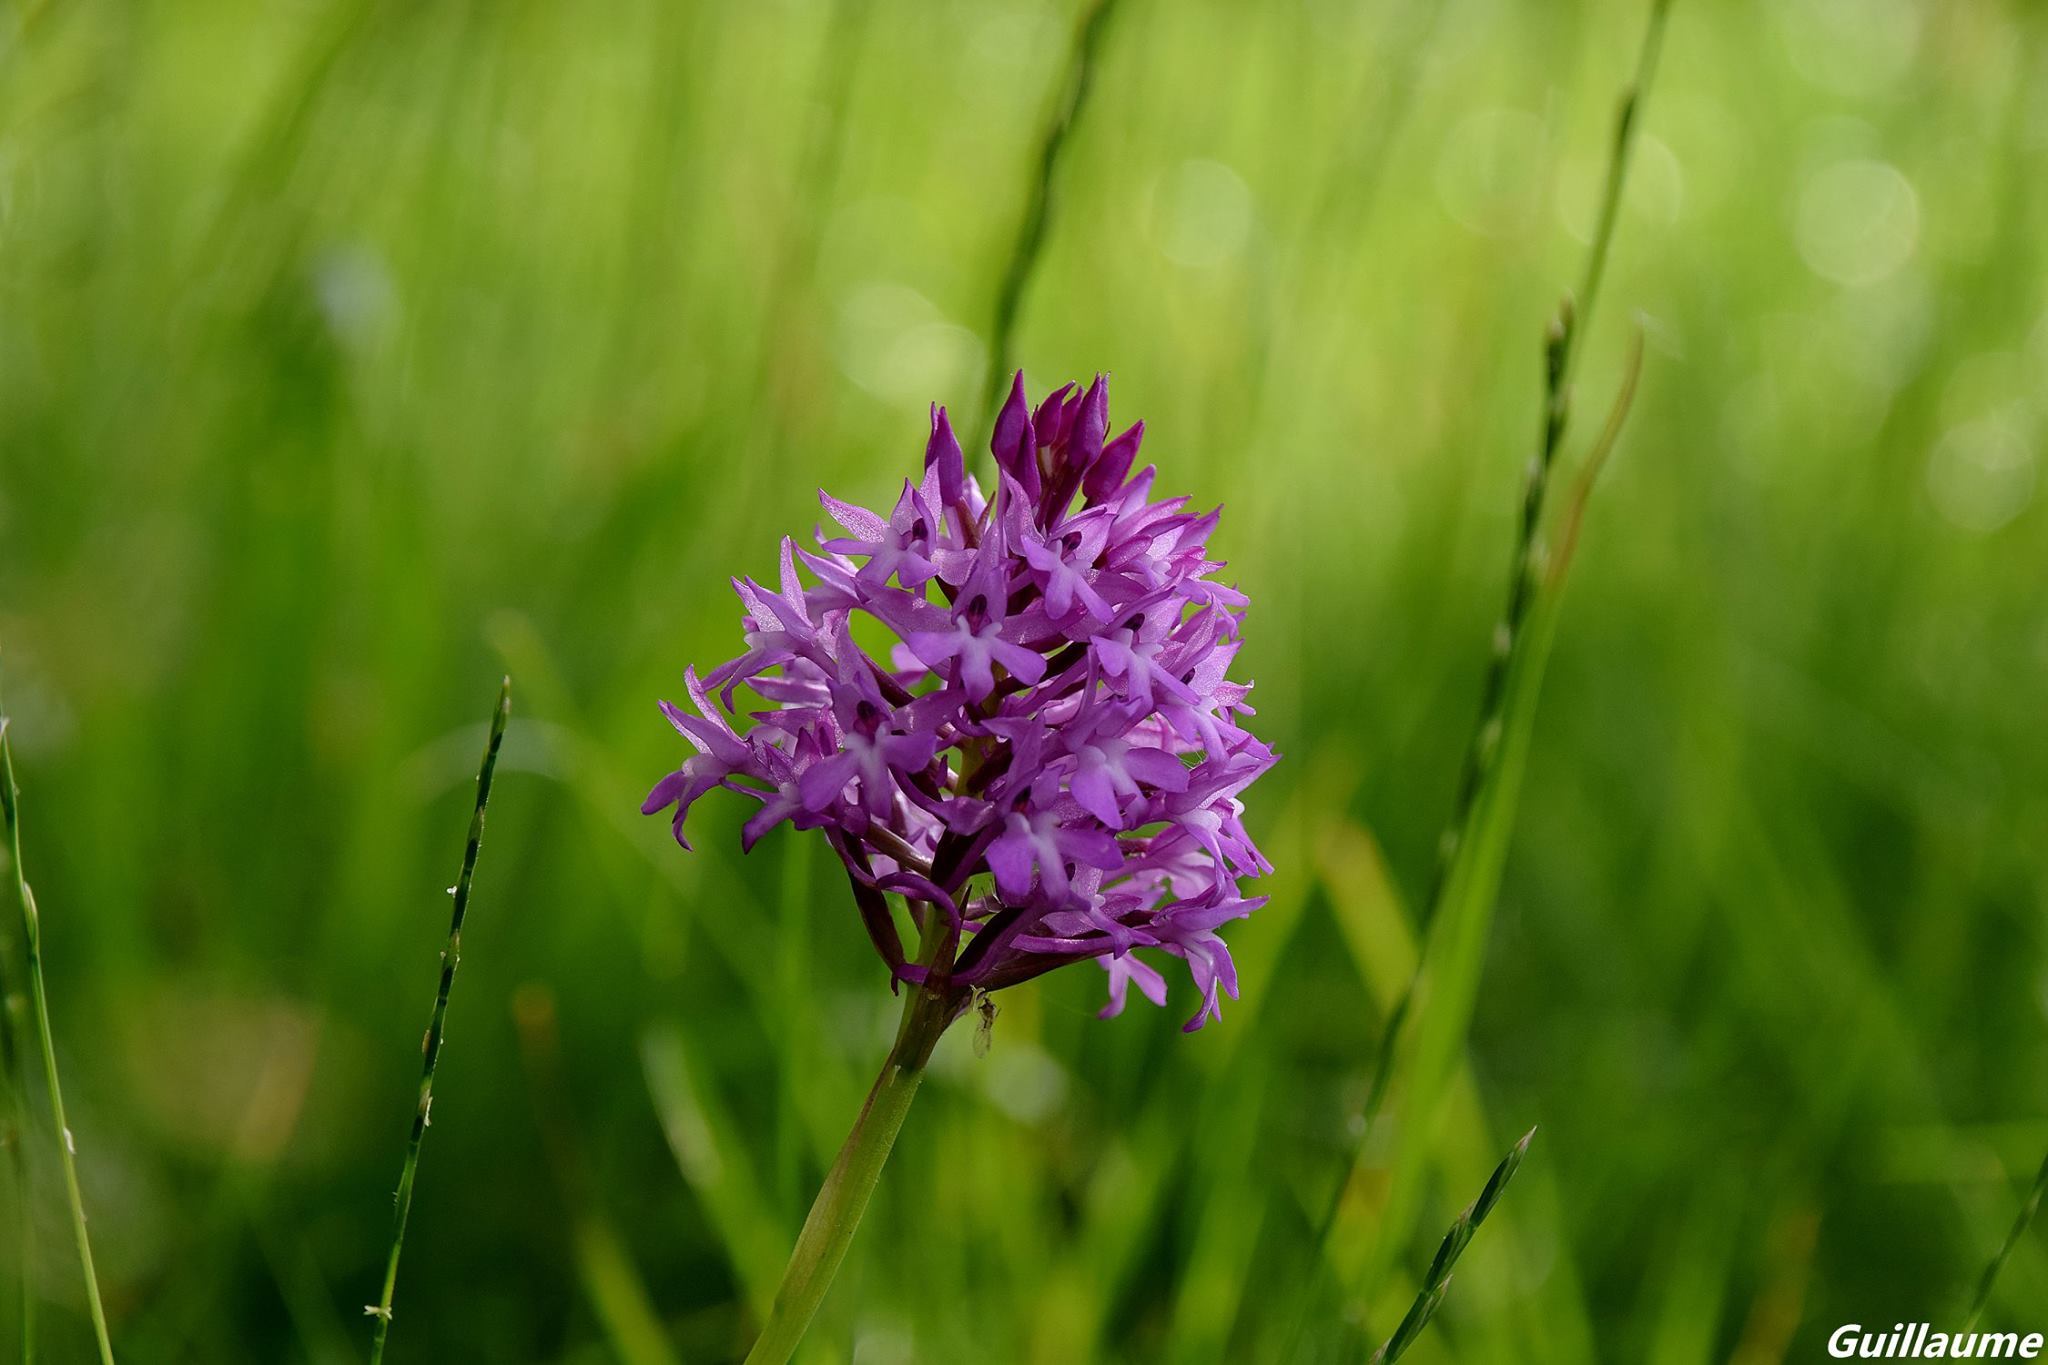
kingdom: Plantae
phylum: Tracheophyta
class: Liliopsida
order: Asparagales
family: Orchidaceae
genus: Anacamptis
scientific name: Anacamptis pyramidalis
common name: Pyramidal orchid
